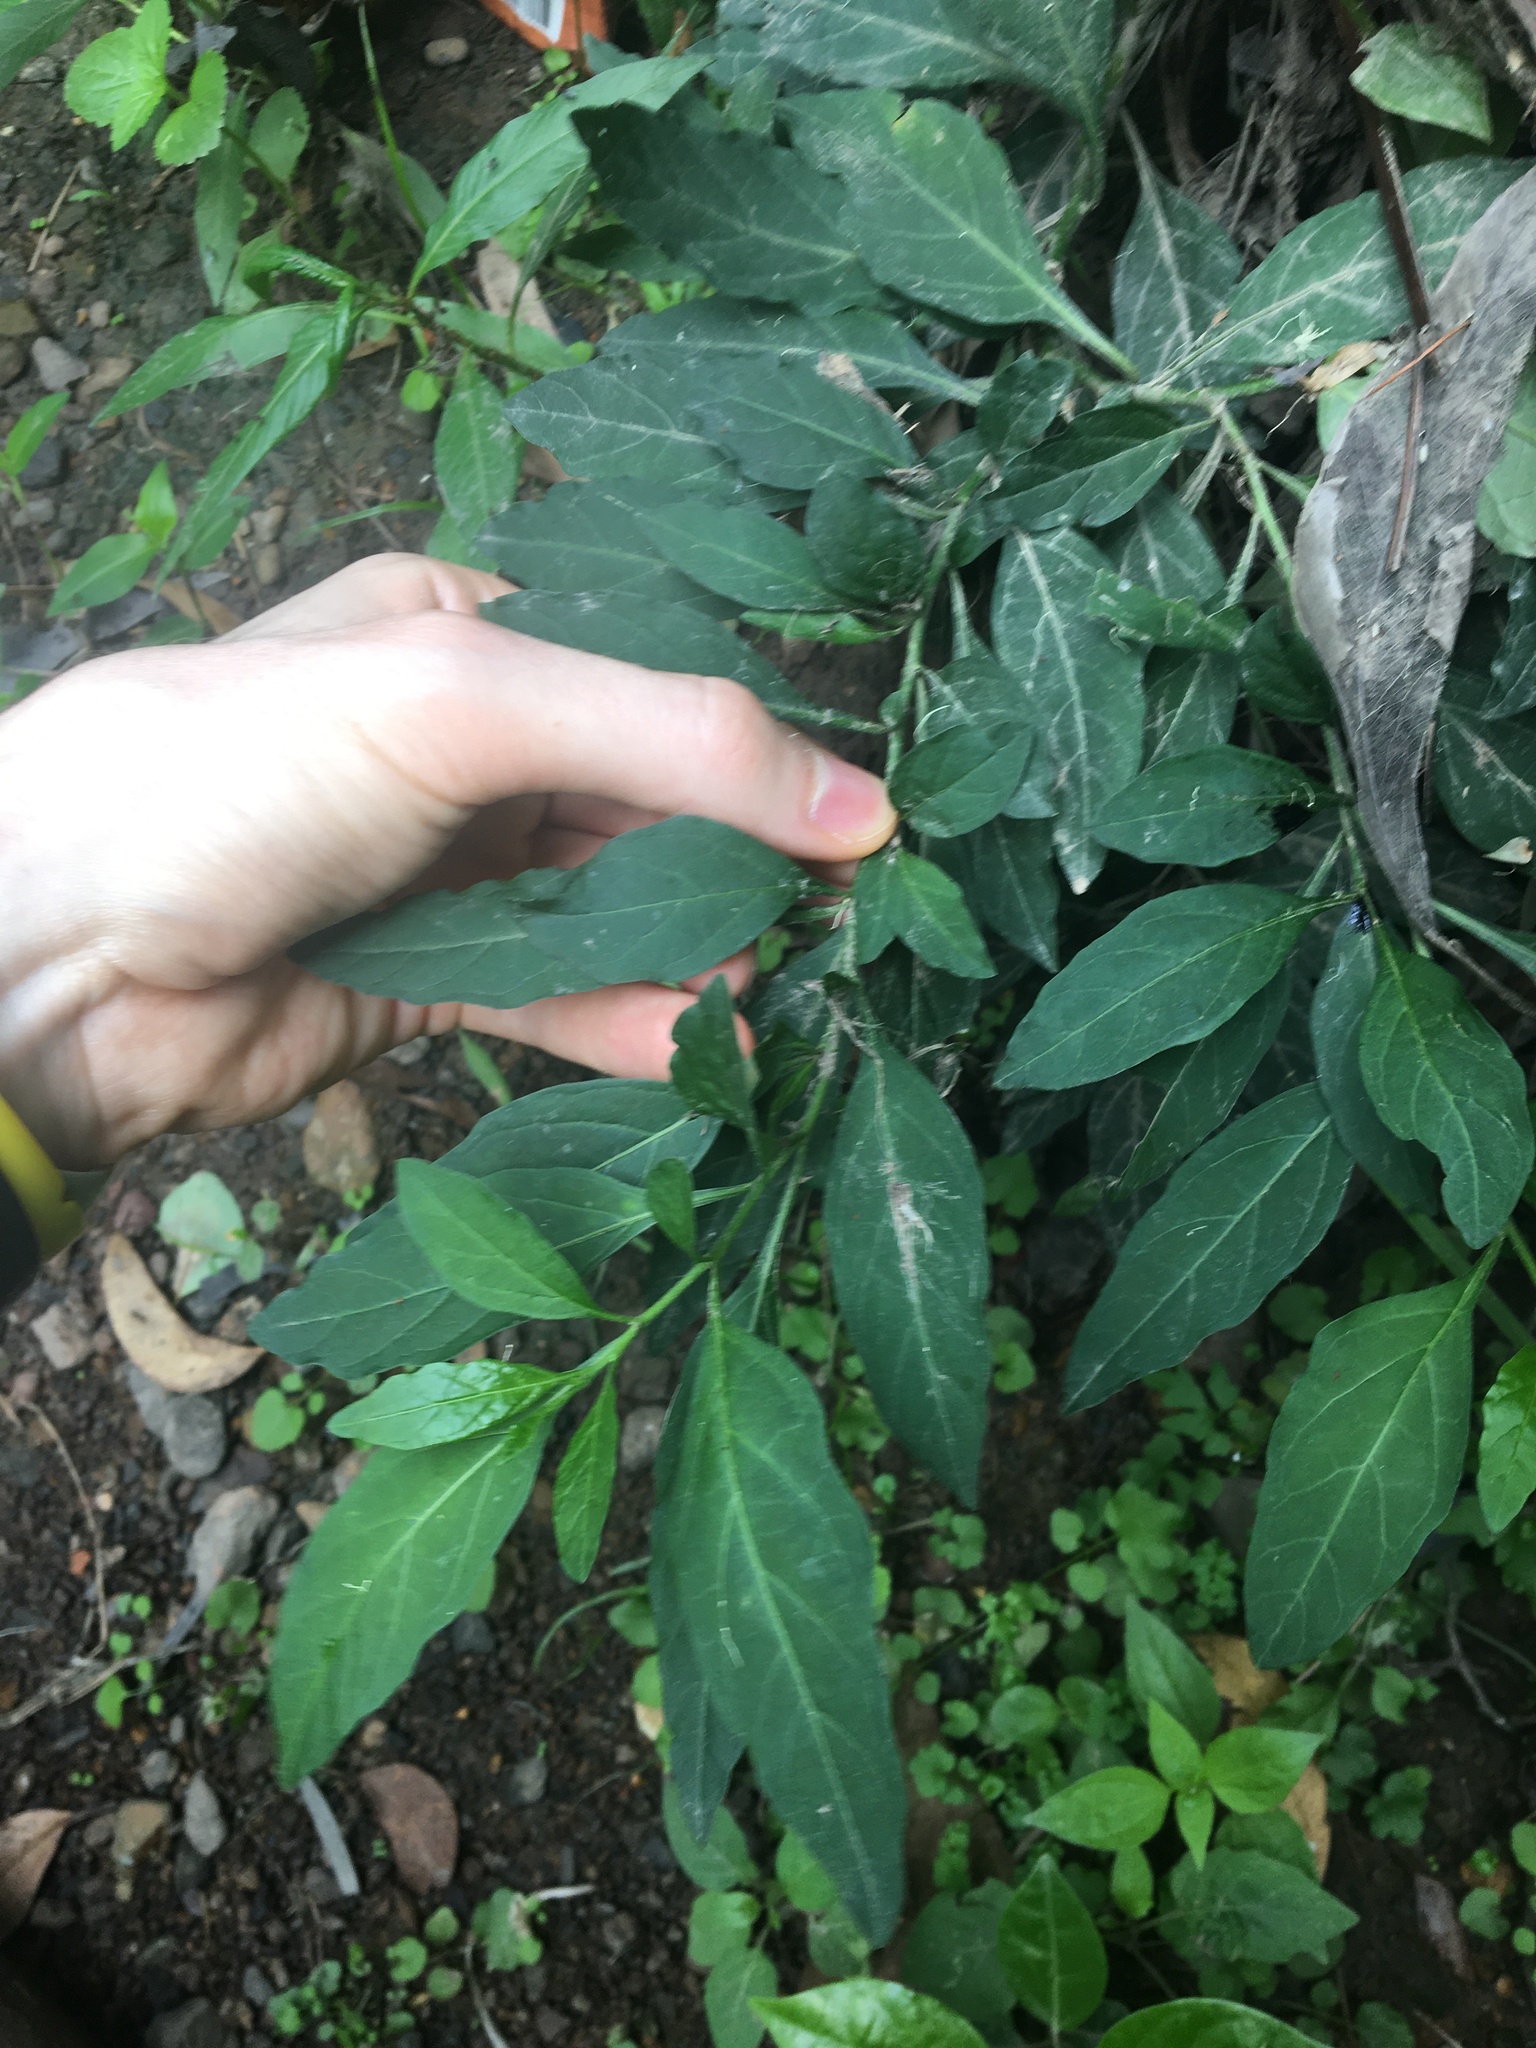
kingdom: Plantae
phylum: Tracheophyta
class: Magnoliopsida
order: Solanales
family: Solanaceae
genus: Solanum
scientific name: Solanum pseudocapsicum
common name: Jerusalem cherry
